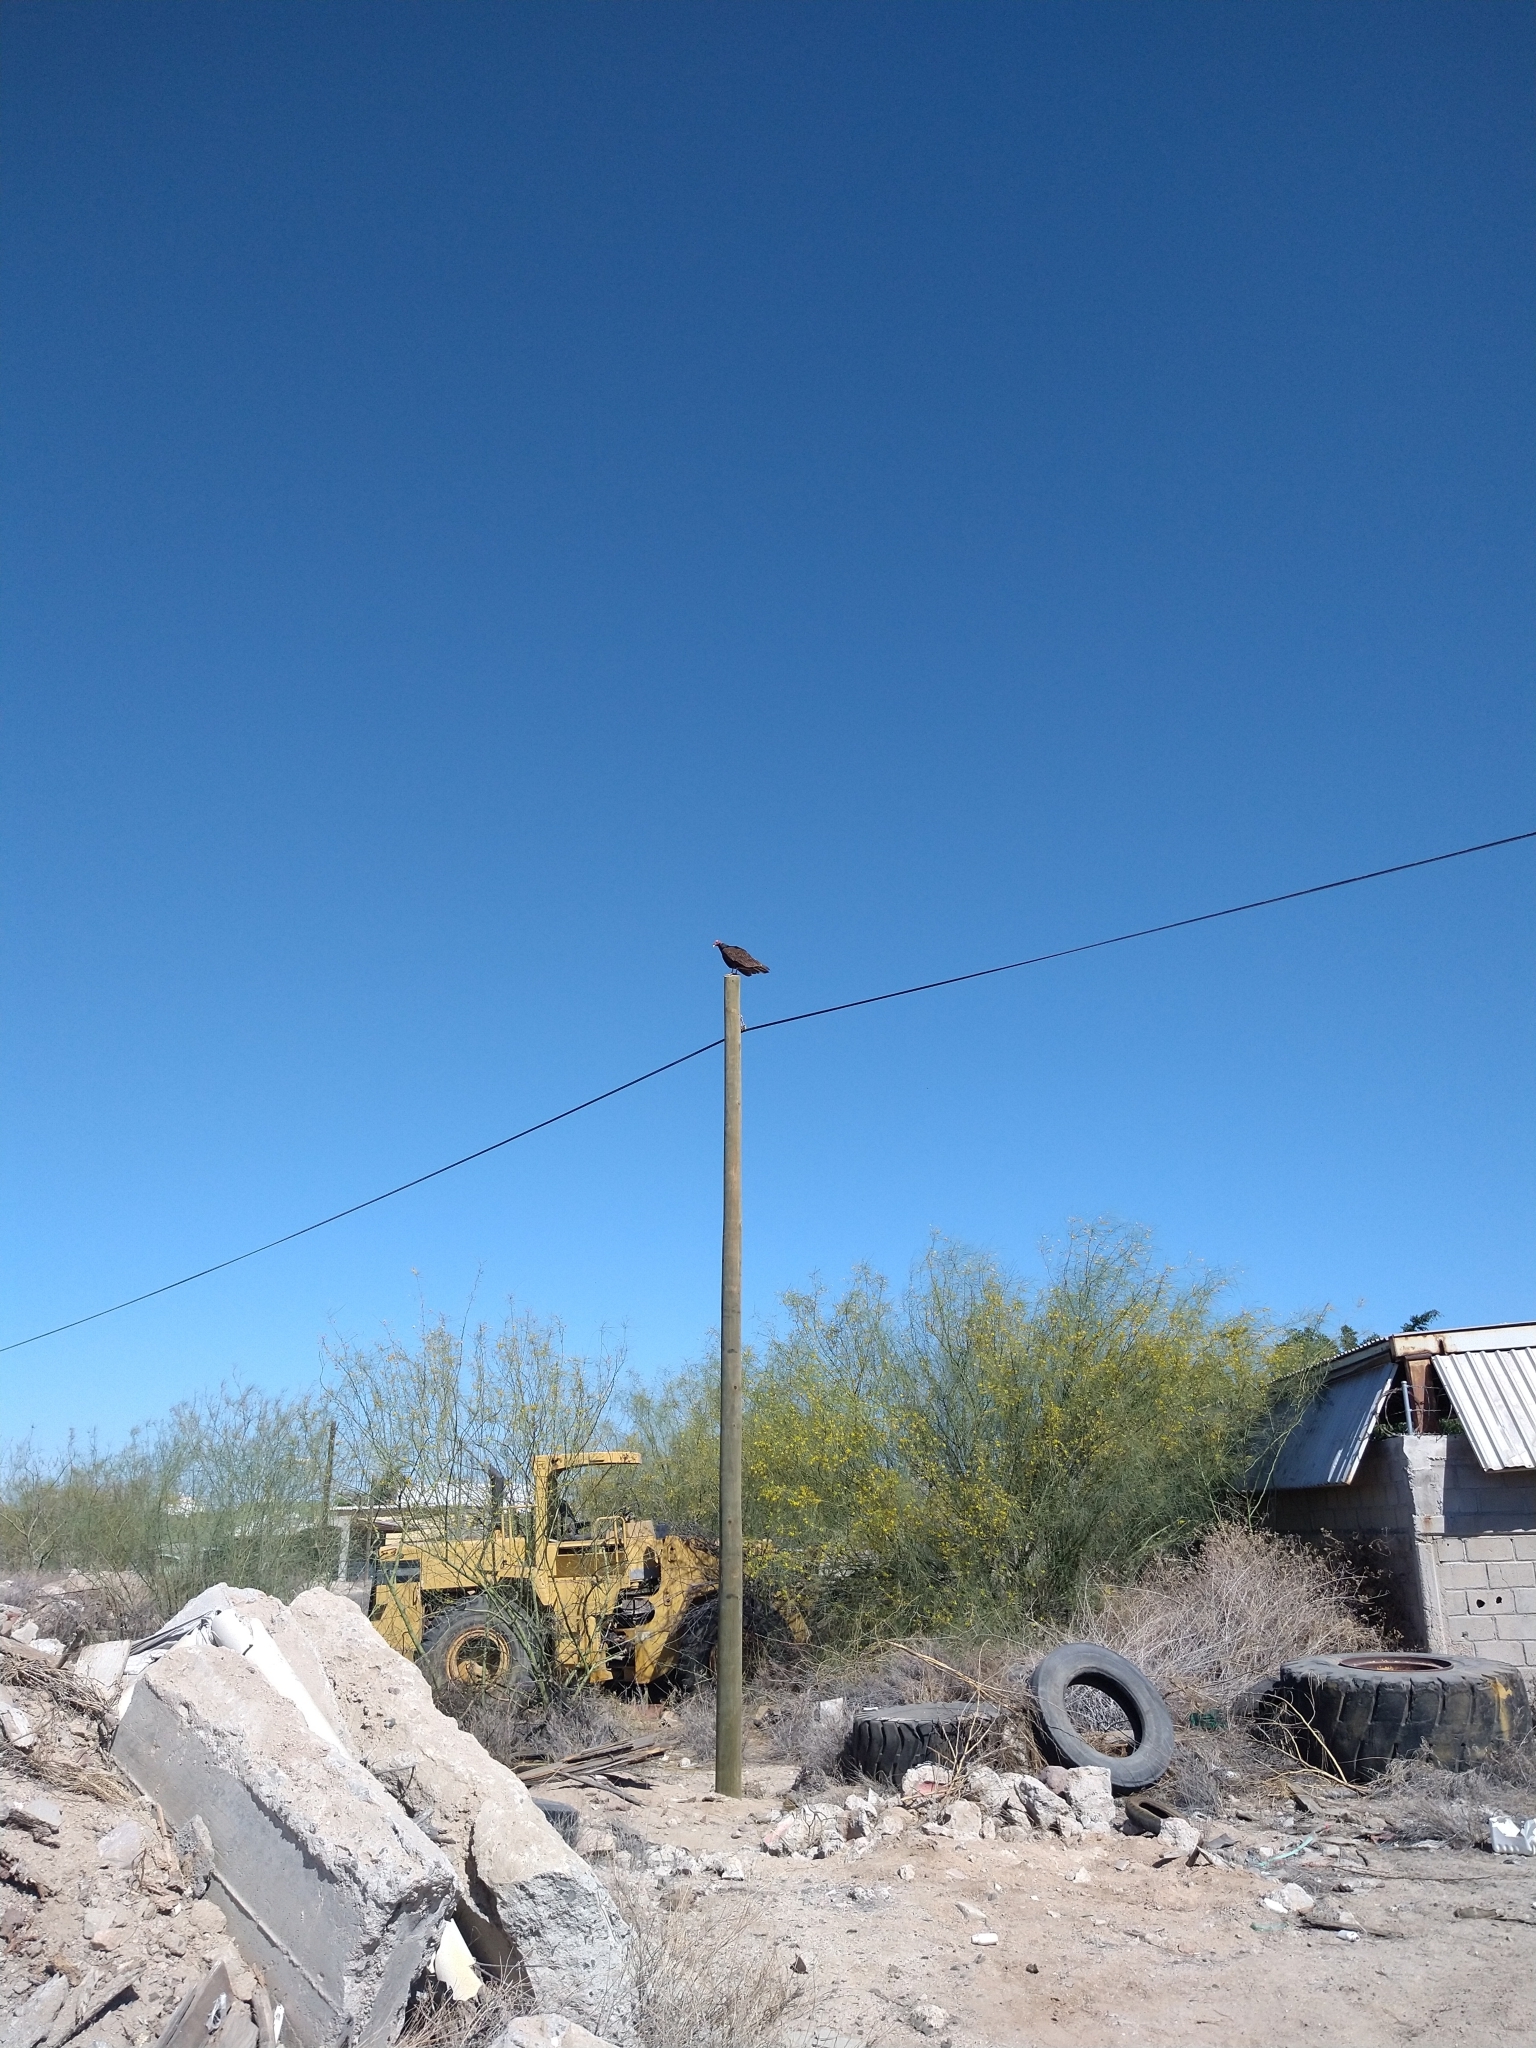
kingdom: Animalia
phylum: Chordata
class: Aves
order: Accipitriformes
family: Cathartidae
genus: Cathartes
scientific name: Cathartes aura
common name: Turkey vulture
